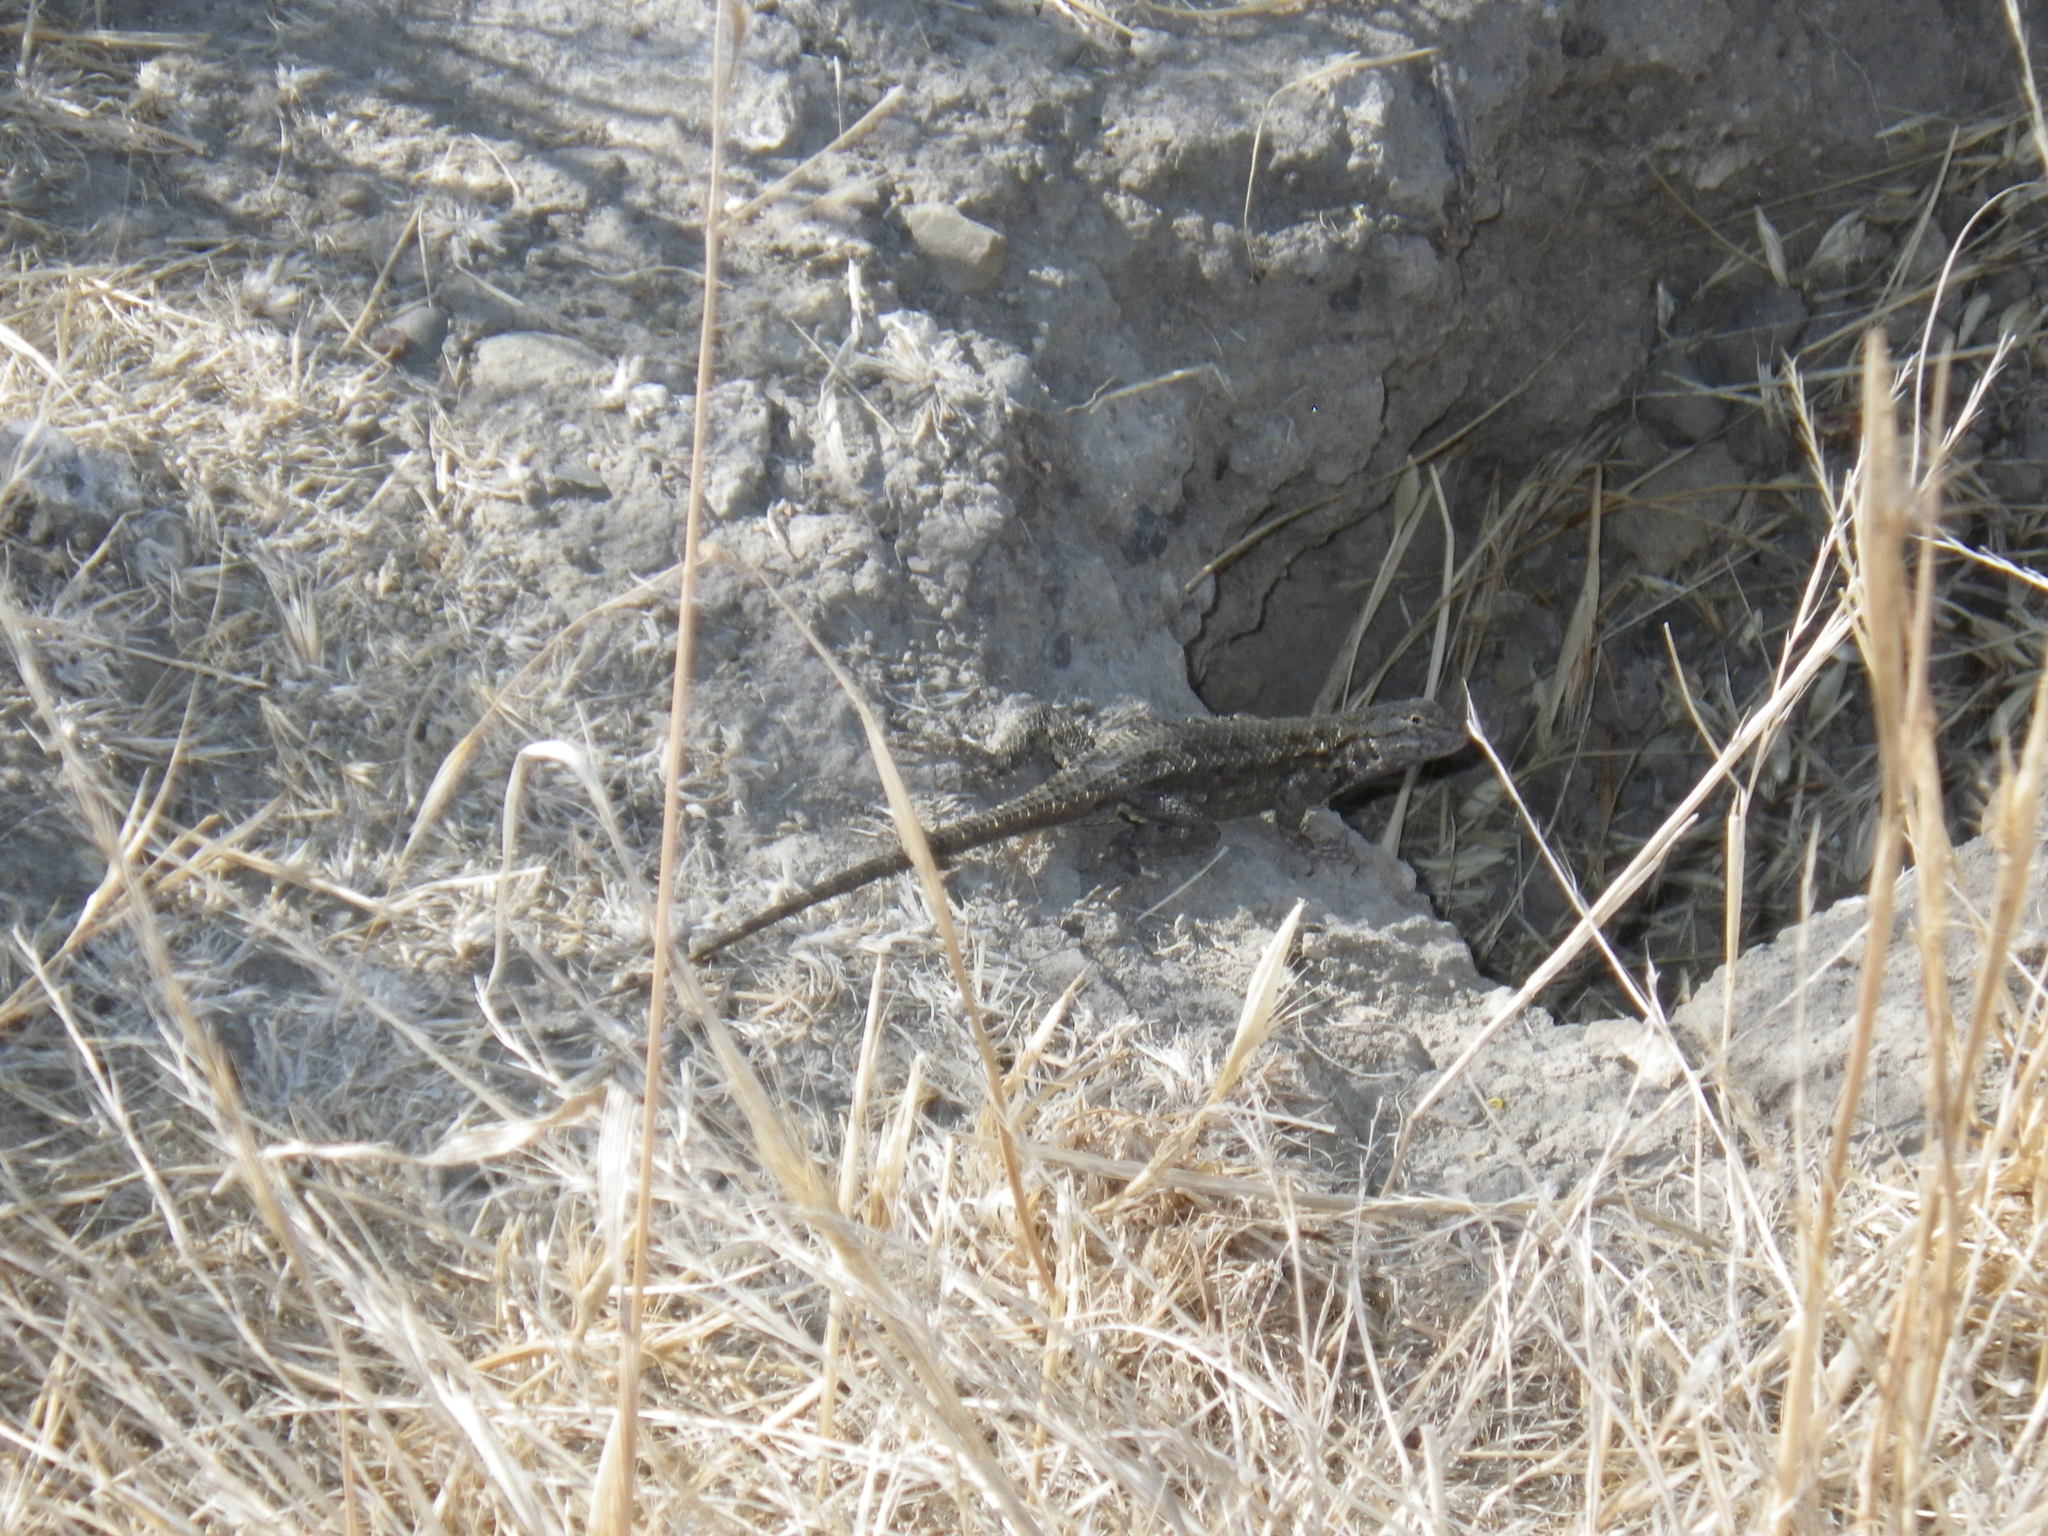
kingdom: Animalia
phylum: Chordata
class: Squamata
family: Phrynosomatidae
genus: Sceloporus
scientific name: Sceloporus occidentalis
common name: Western fence lizard
